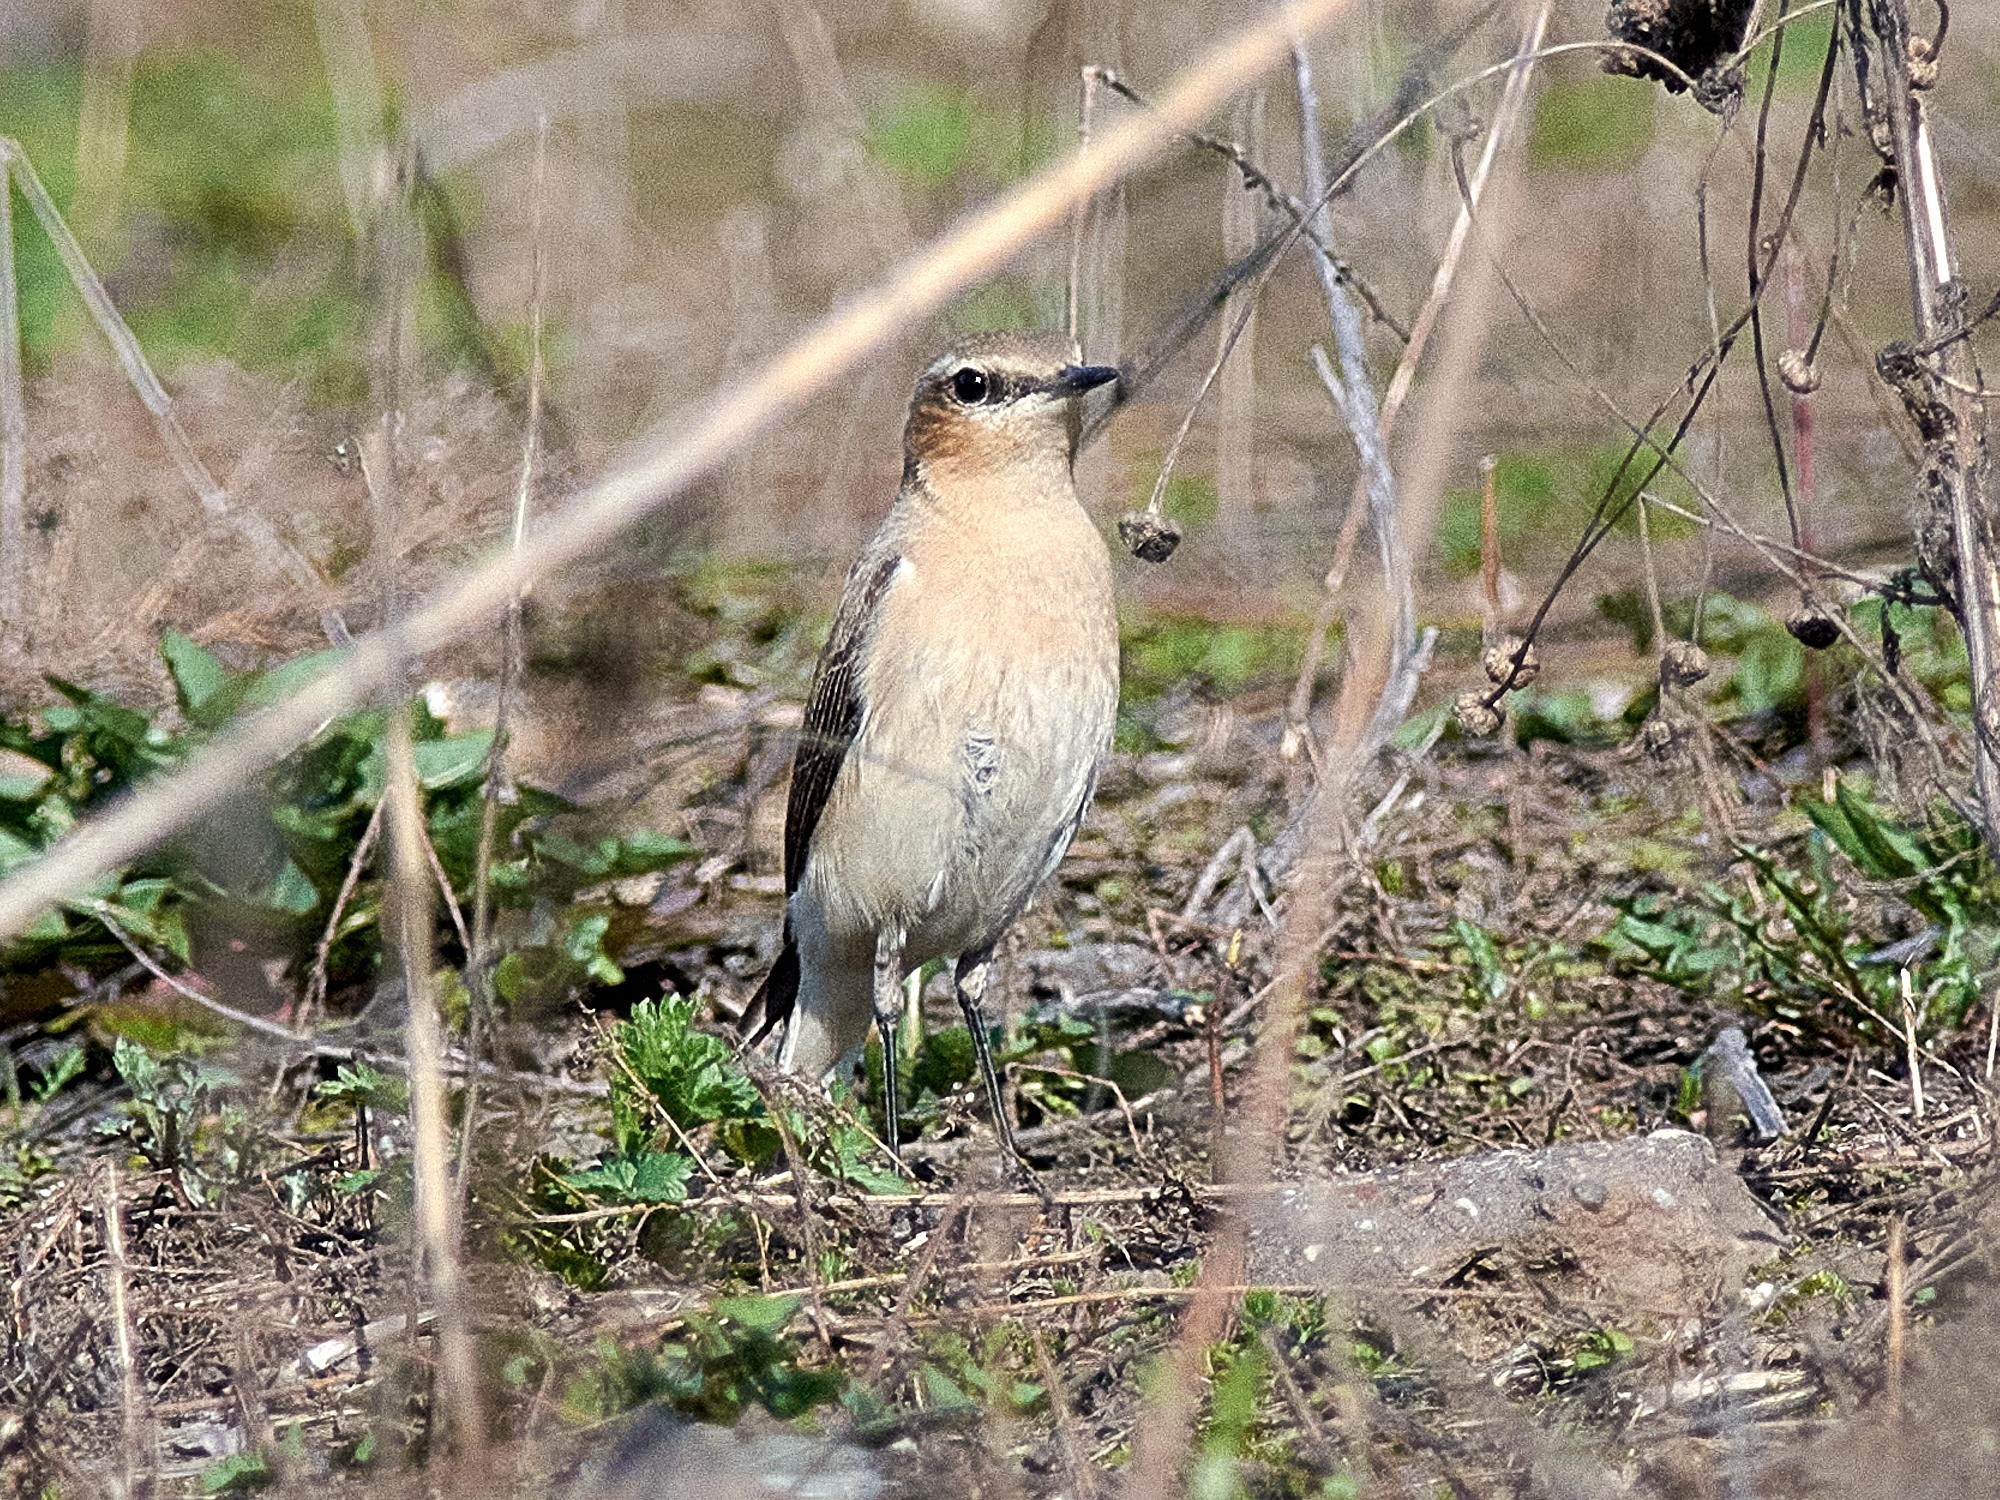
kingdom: Animalia
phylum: Chordata
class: Aves
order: Passeriformes
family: Muscicapidae
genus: Oenanthe
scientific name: Oenanthe oenanthe
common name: Northern wheatear
